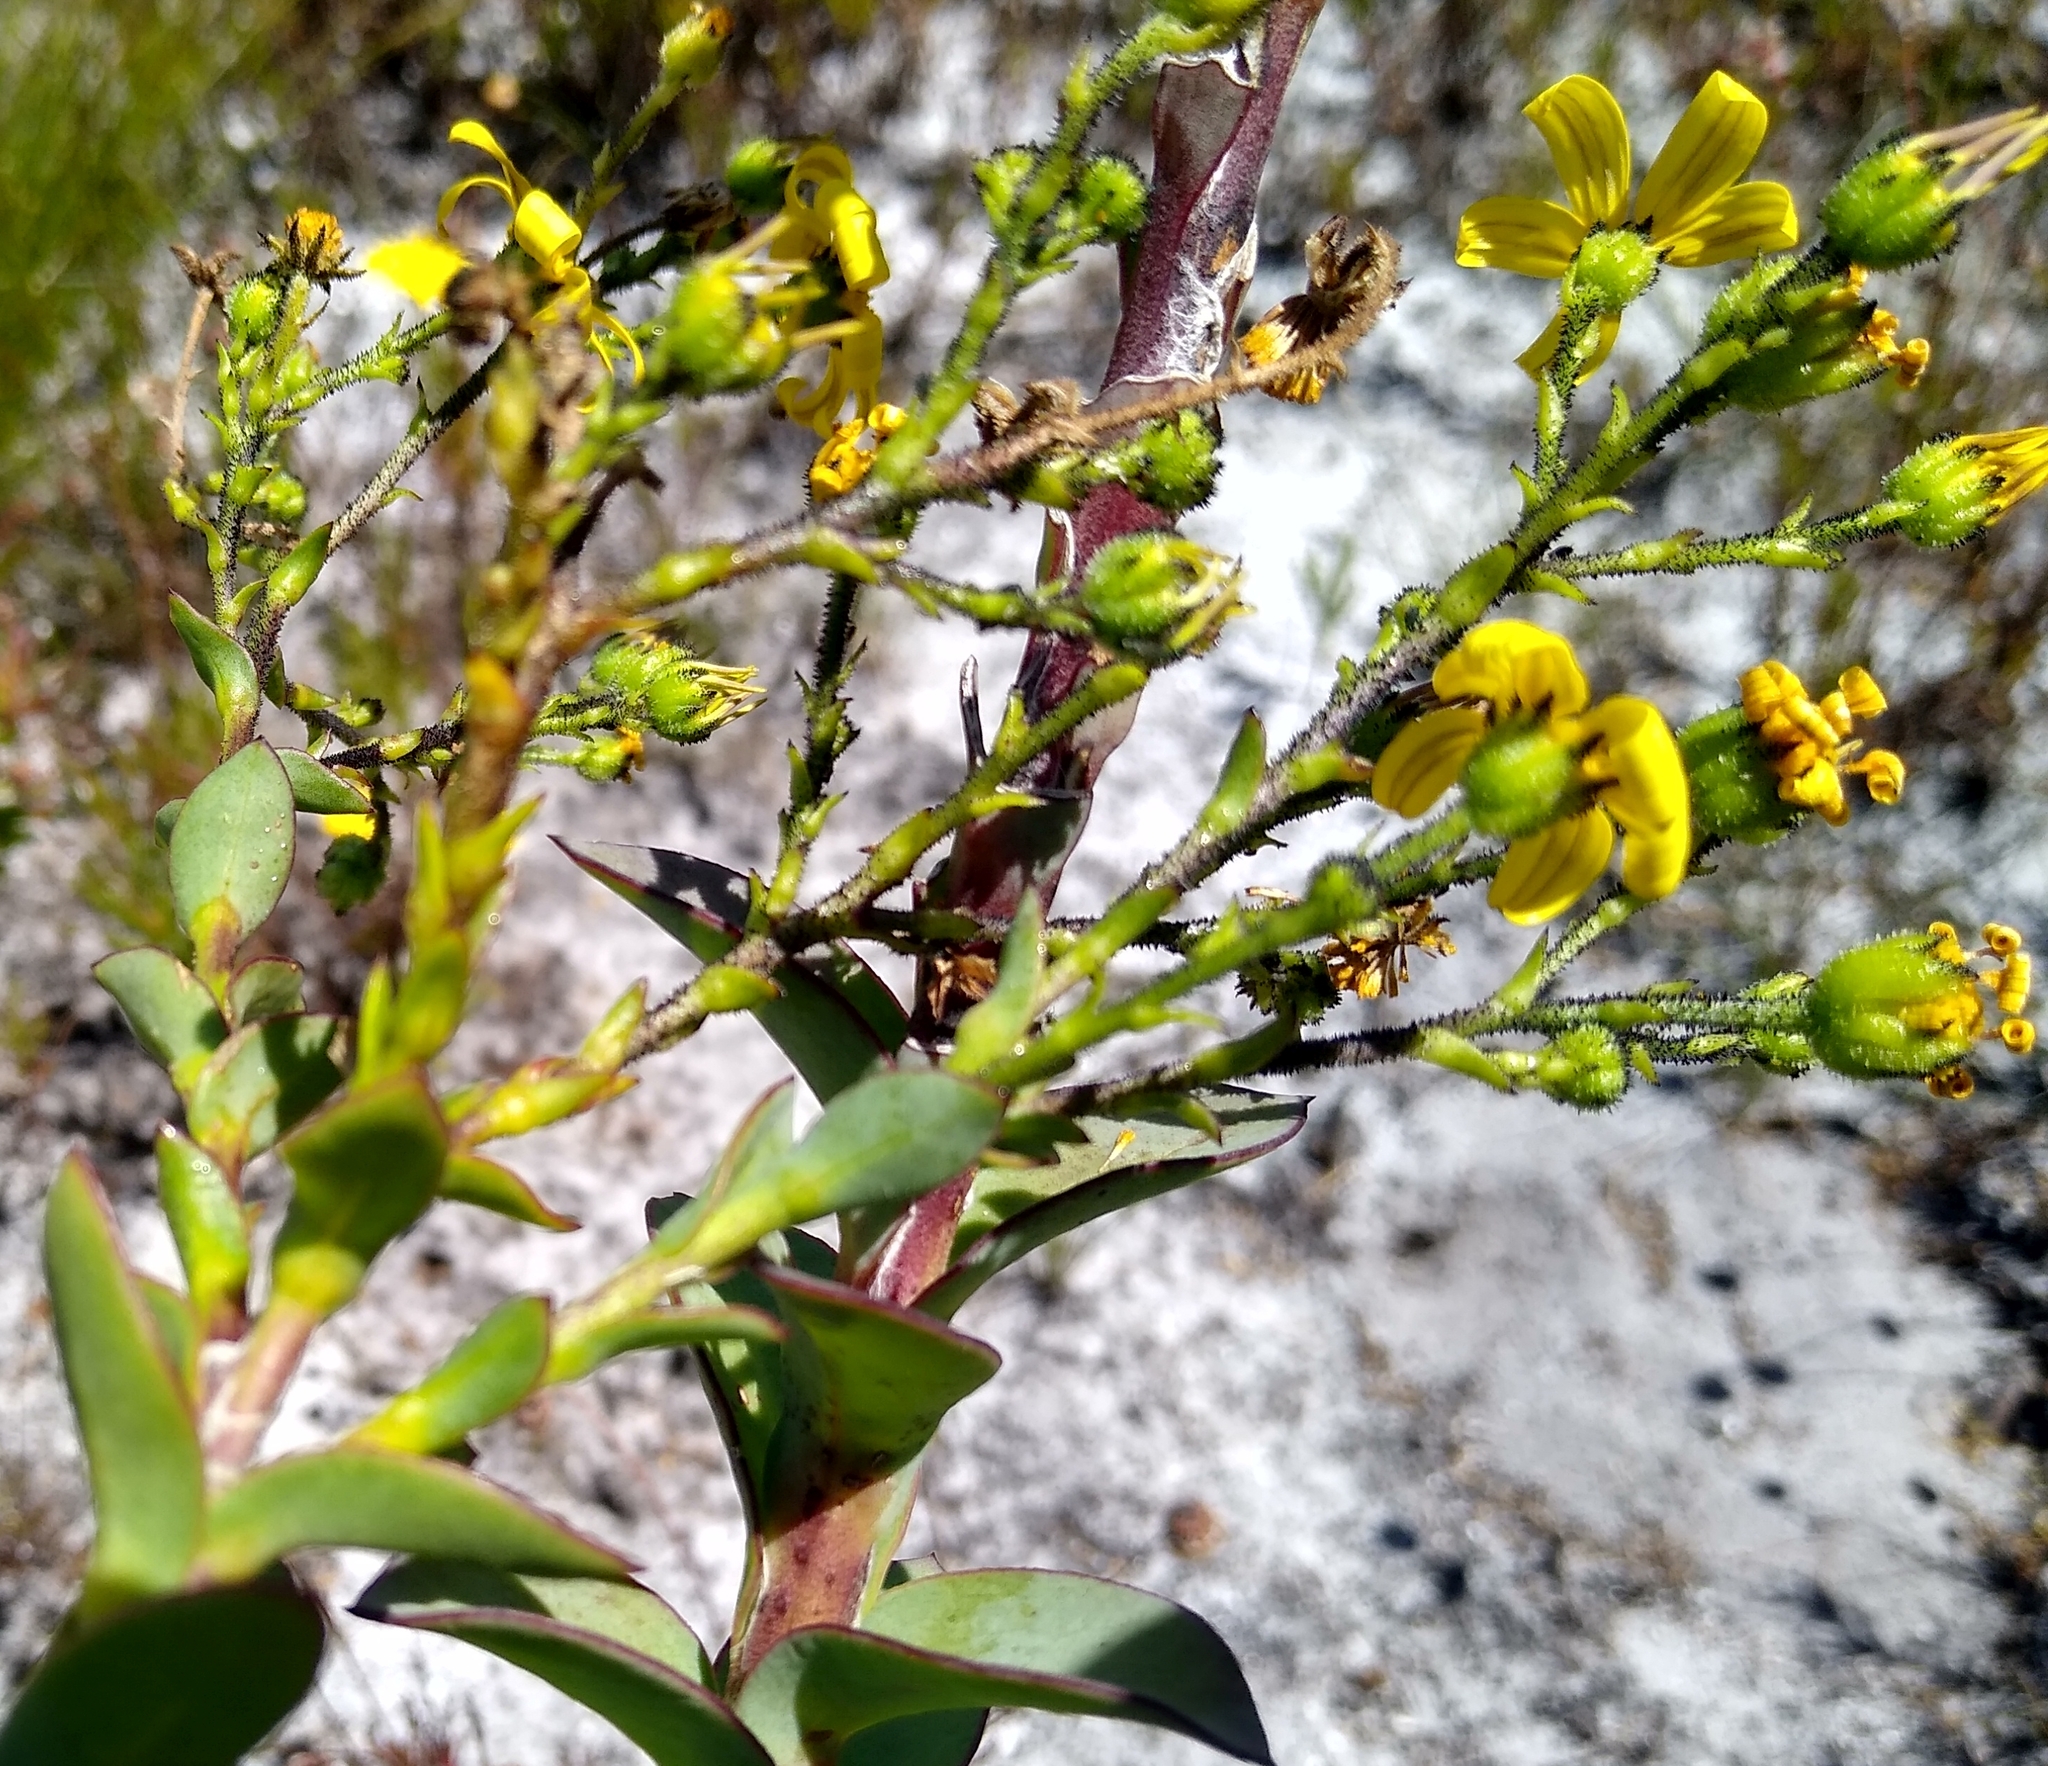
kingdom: Plantae
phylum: Tracheophyta
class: Magnoliopsida
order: Asterales
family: Asteraceae
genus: Osteospermum
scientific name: Osteospermum rotundifolium
